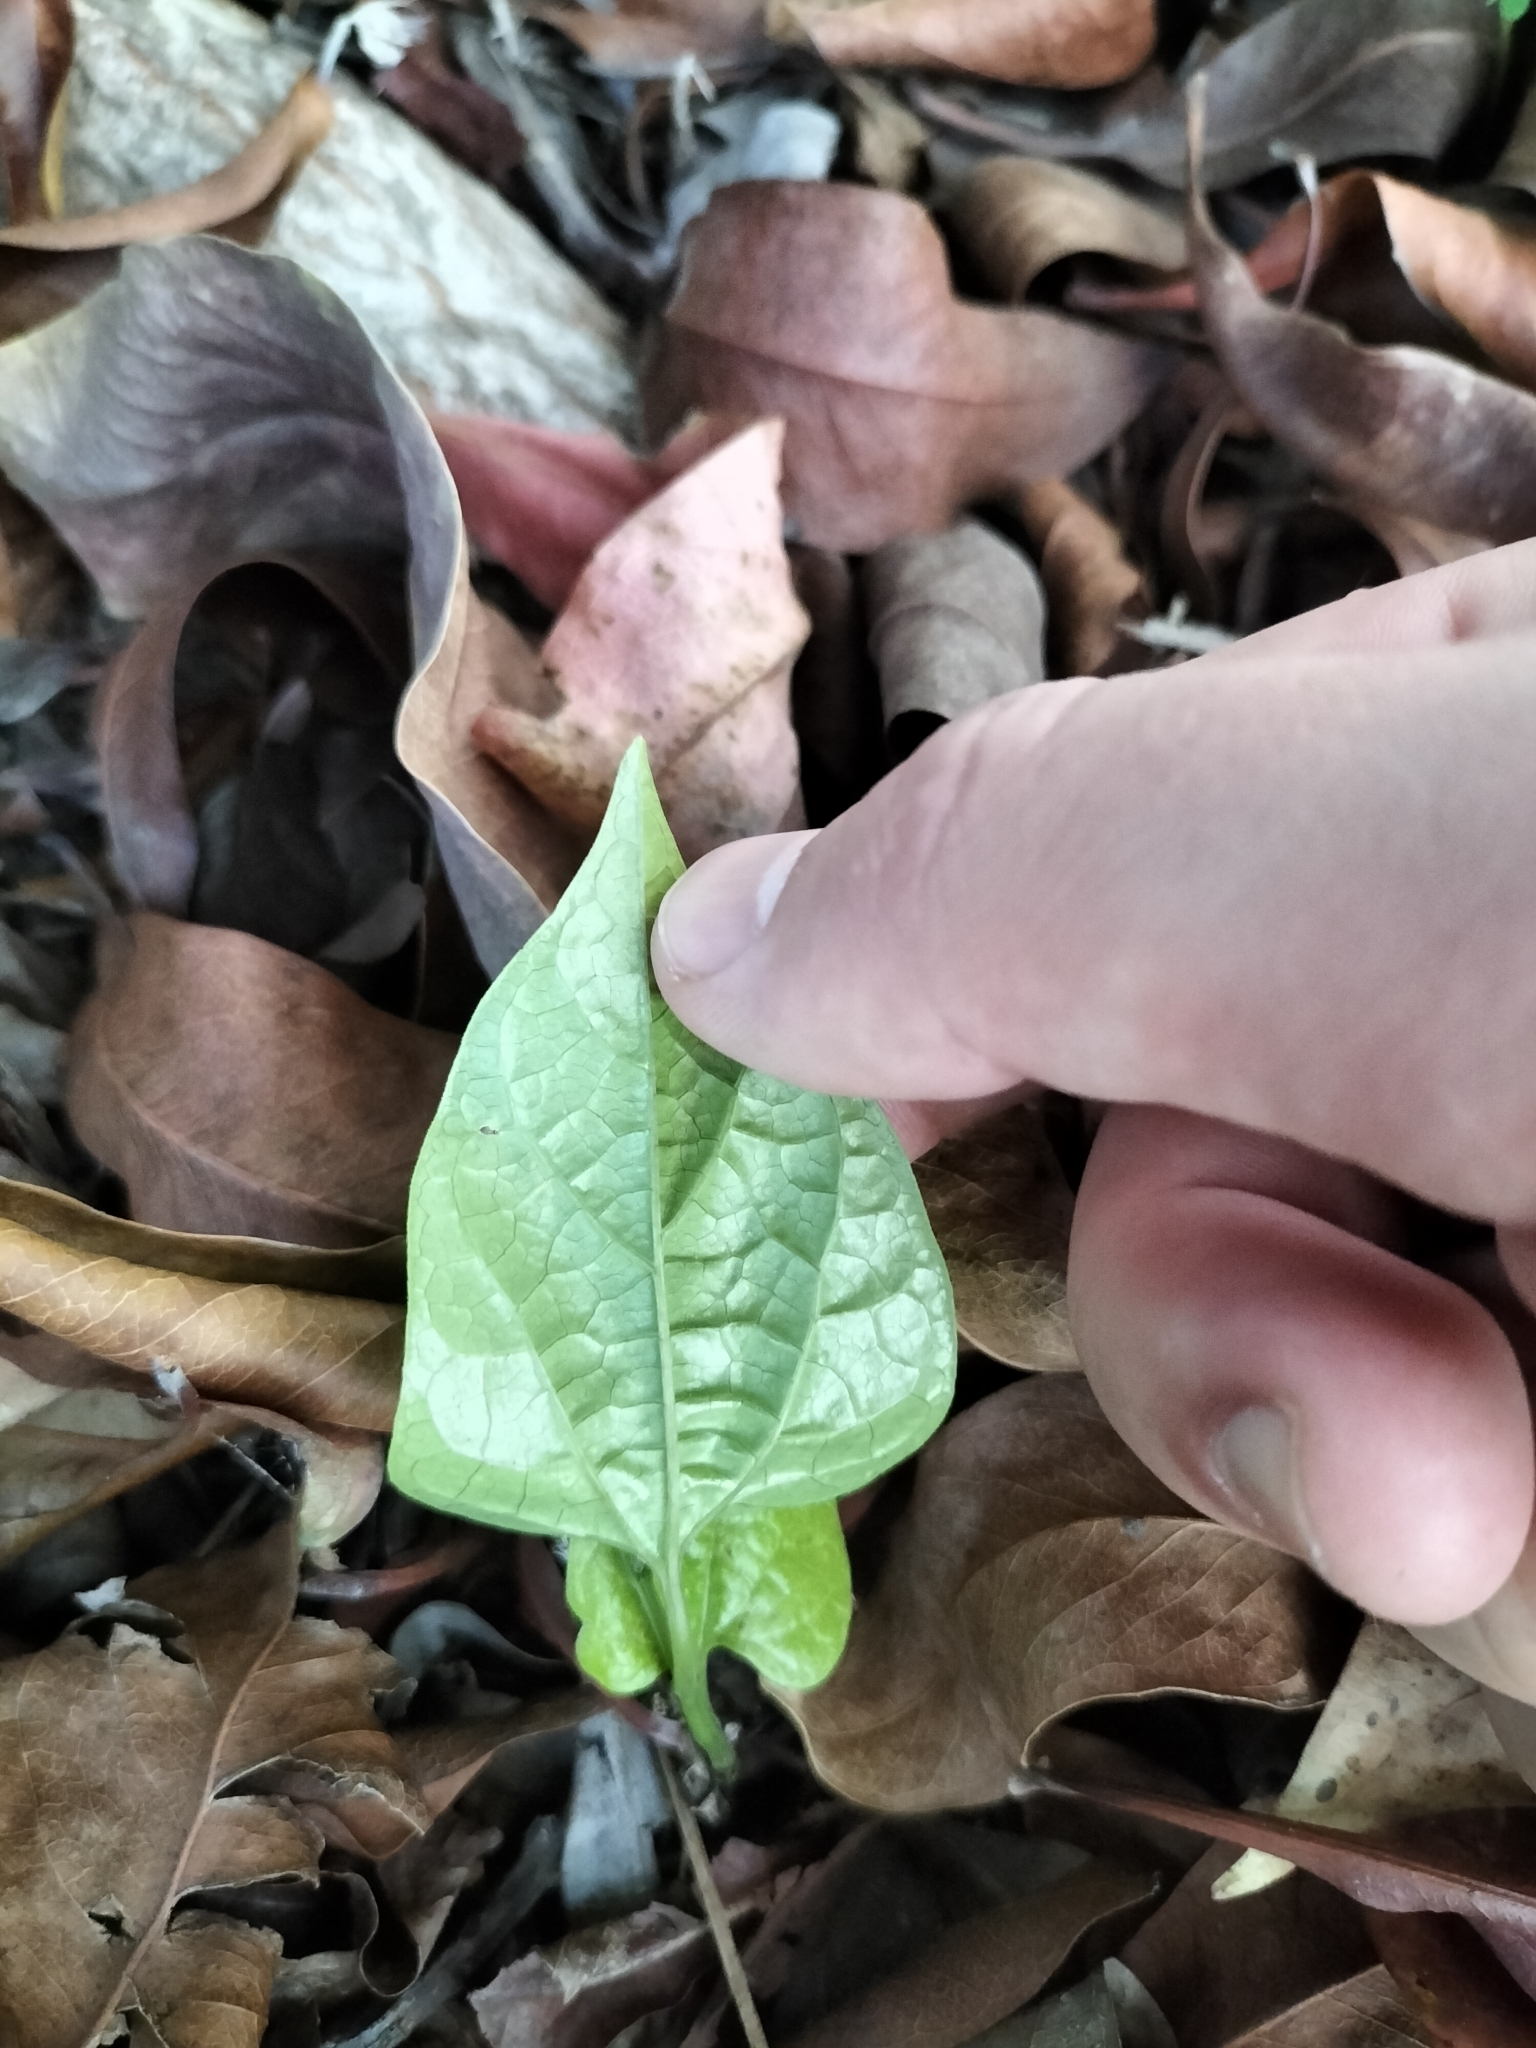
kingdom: Plantae
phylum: Tracheophyta
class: Magnoliopsida
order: Piperales
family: Aristolochiaceae
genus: Aristolochia
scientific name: Aristolochia acuminata
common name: Indian birthwort
